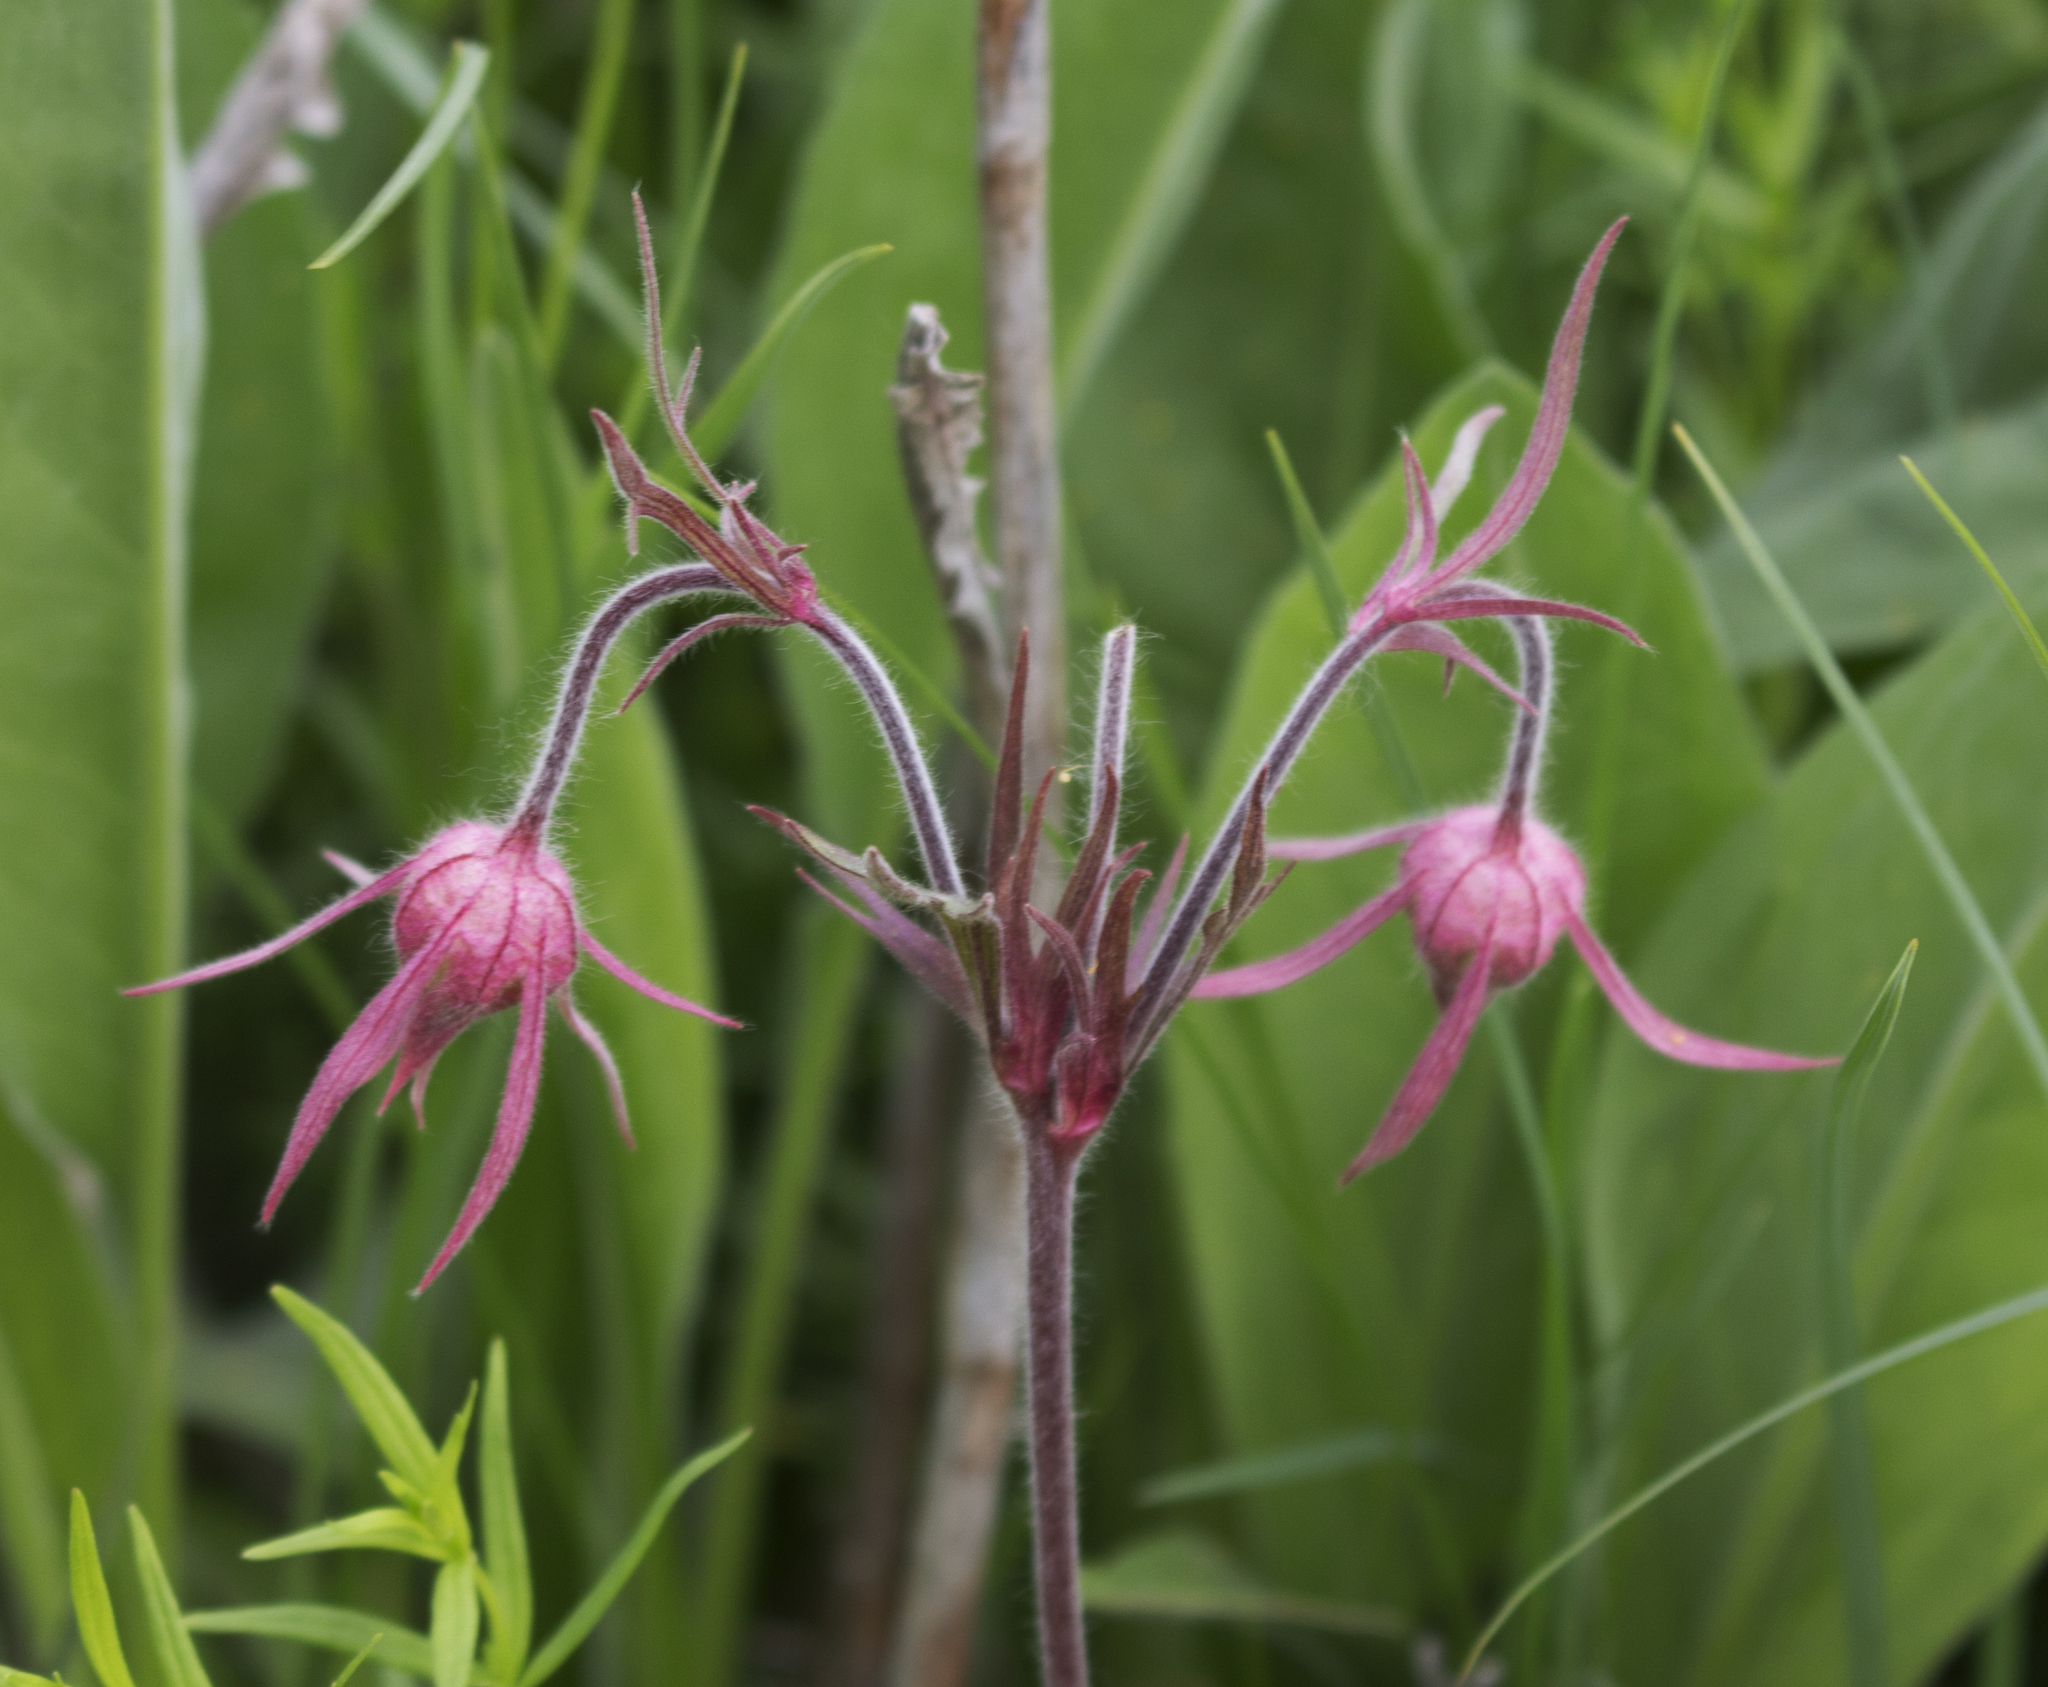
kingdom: Plantae
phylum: Tracheophyta
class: Magnoliopsida
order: Rosales
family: Rosaceae
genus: Geum
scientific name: Geum triflorum
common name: Old man's whiskers
